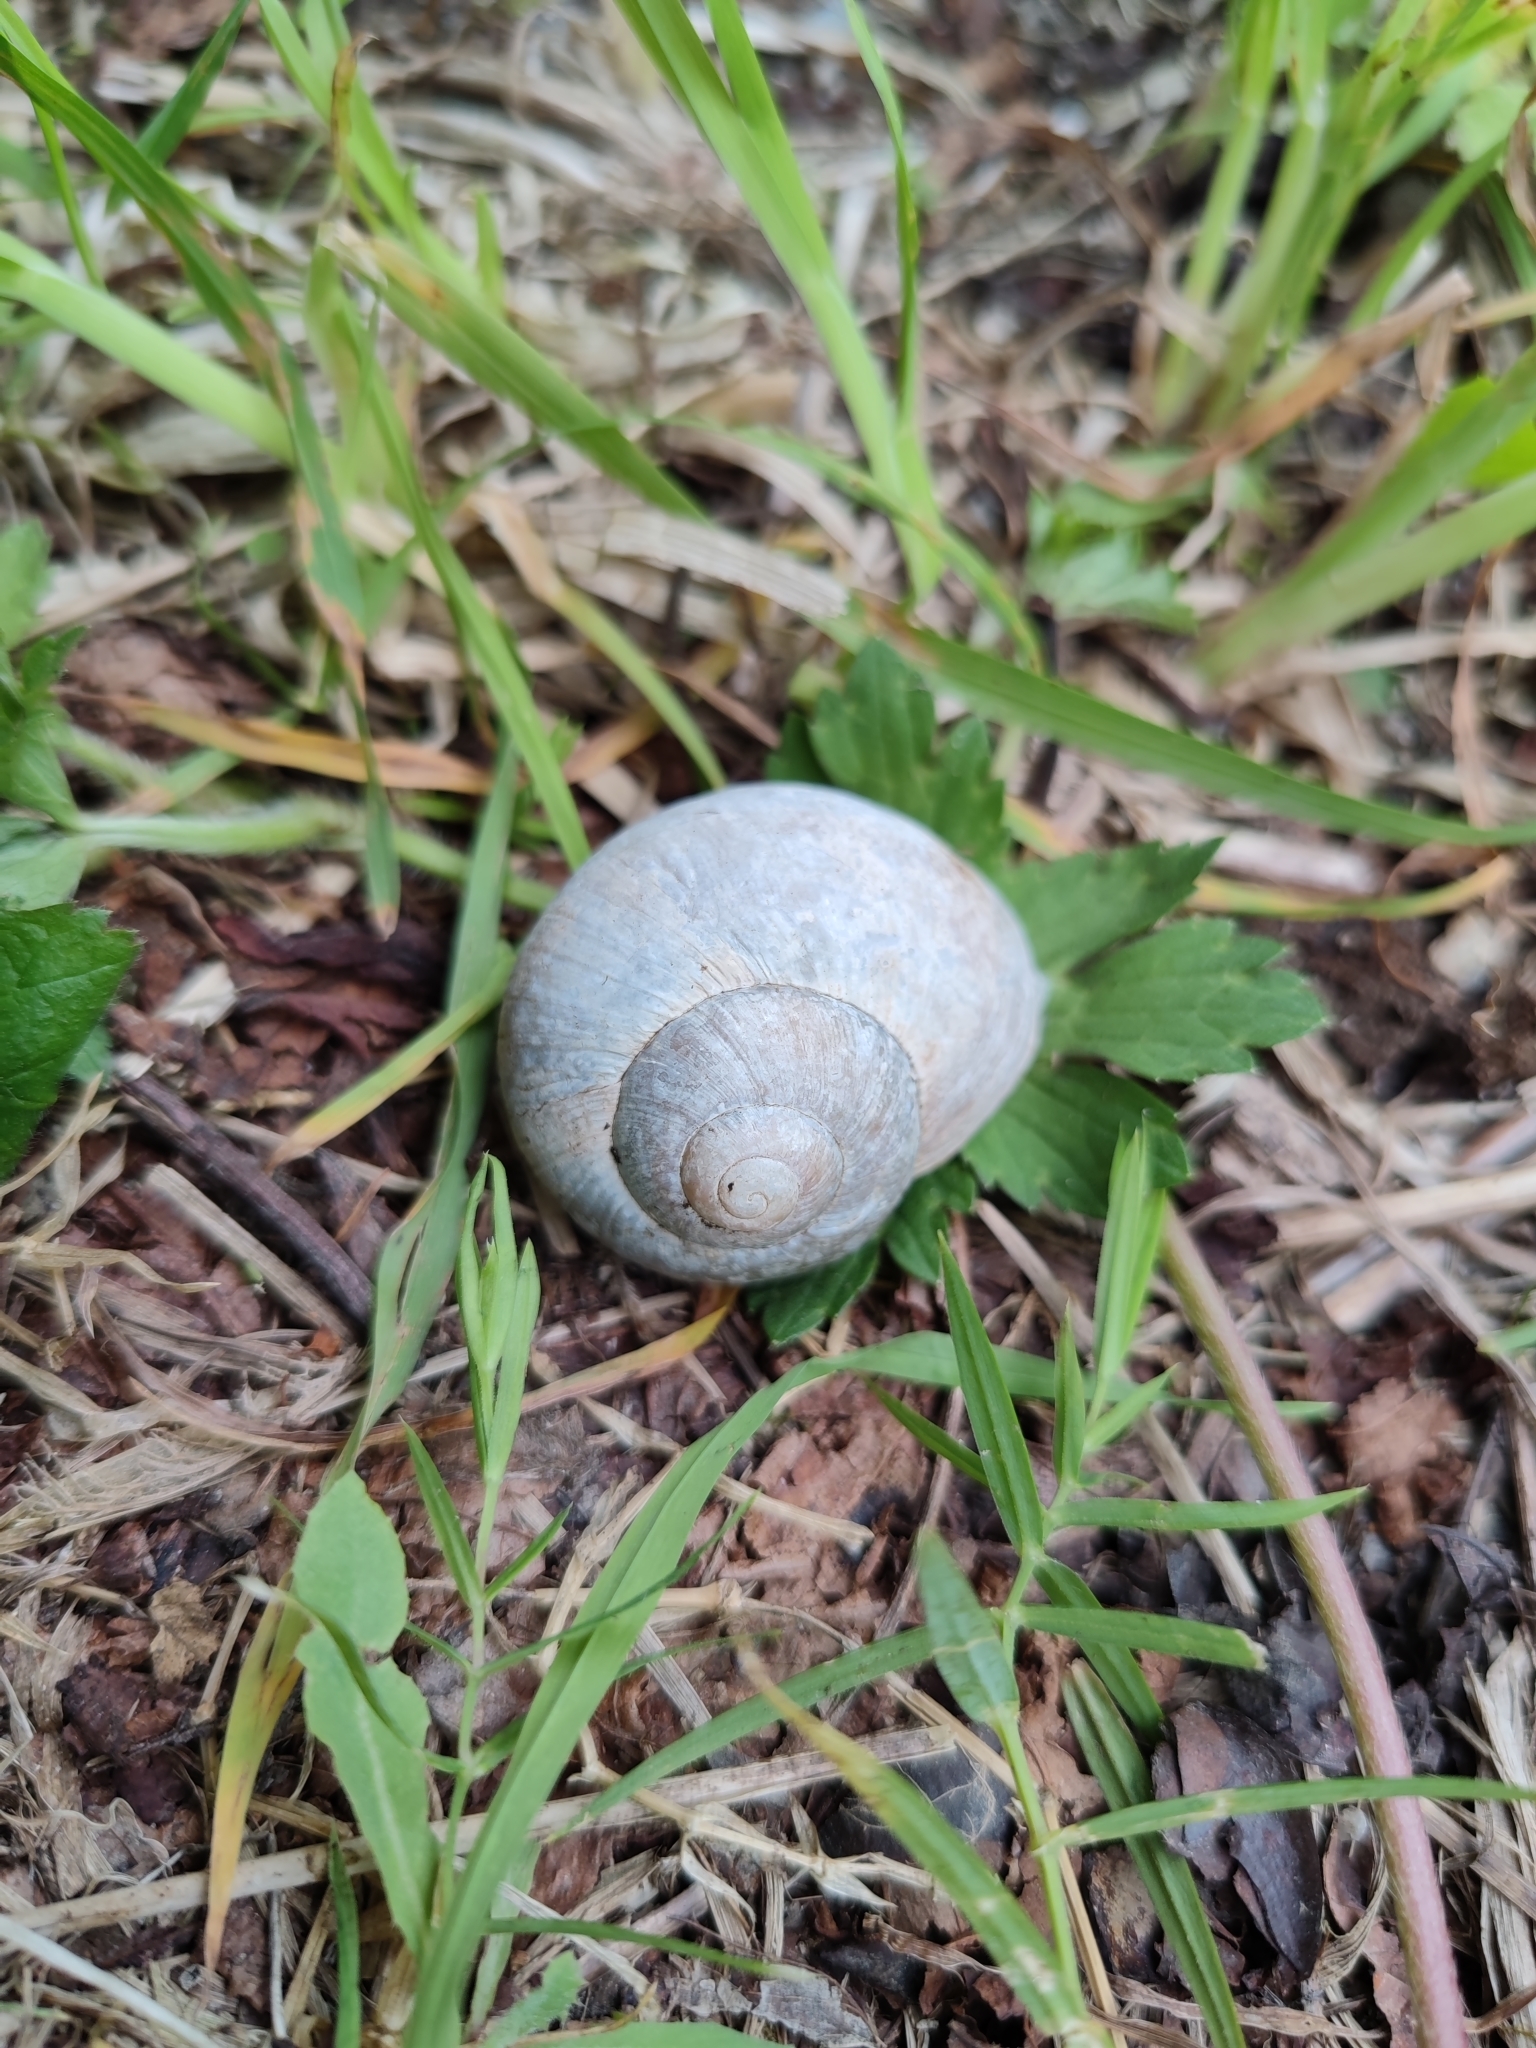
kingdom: Animalia
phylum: Mollusca
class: Gastropoda
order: Stylommatophora
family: Helicidae
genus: Helix
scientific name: Helix pomatia
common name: Roman snail
